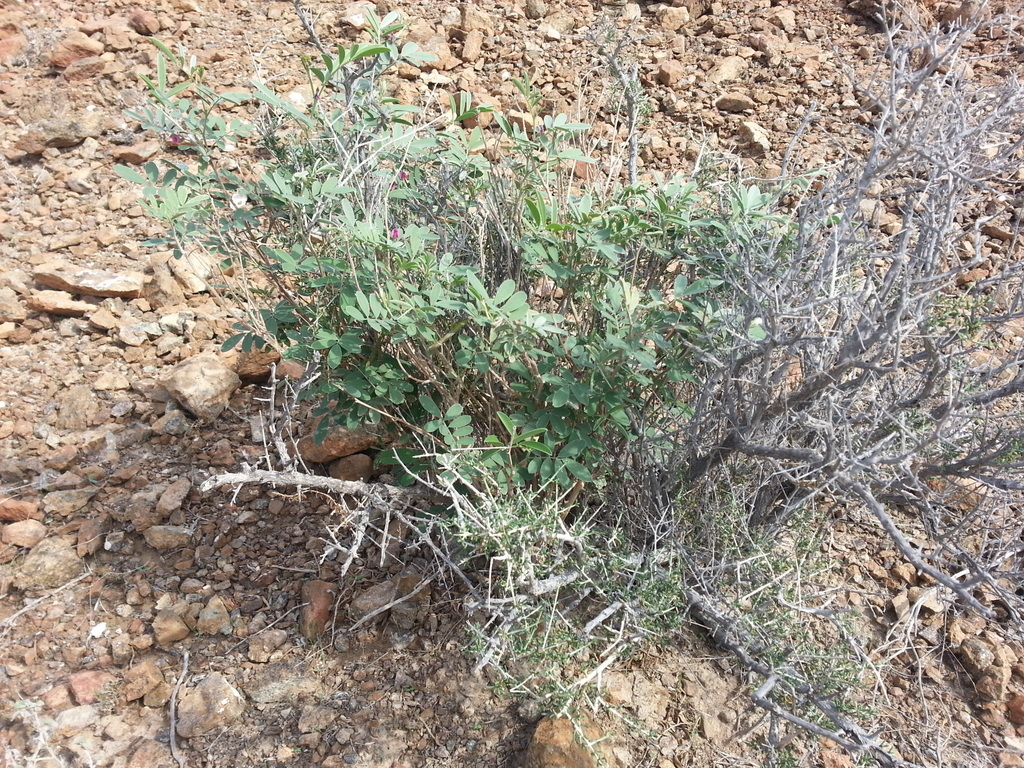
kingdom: Plantae
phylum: Tracheophyta
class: Magnoliopsida
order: Fabales
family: Fabaceae
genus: Tephrosia
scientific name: Tephrosia
